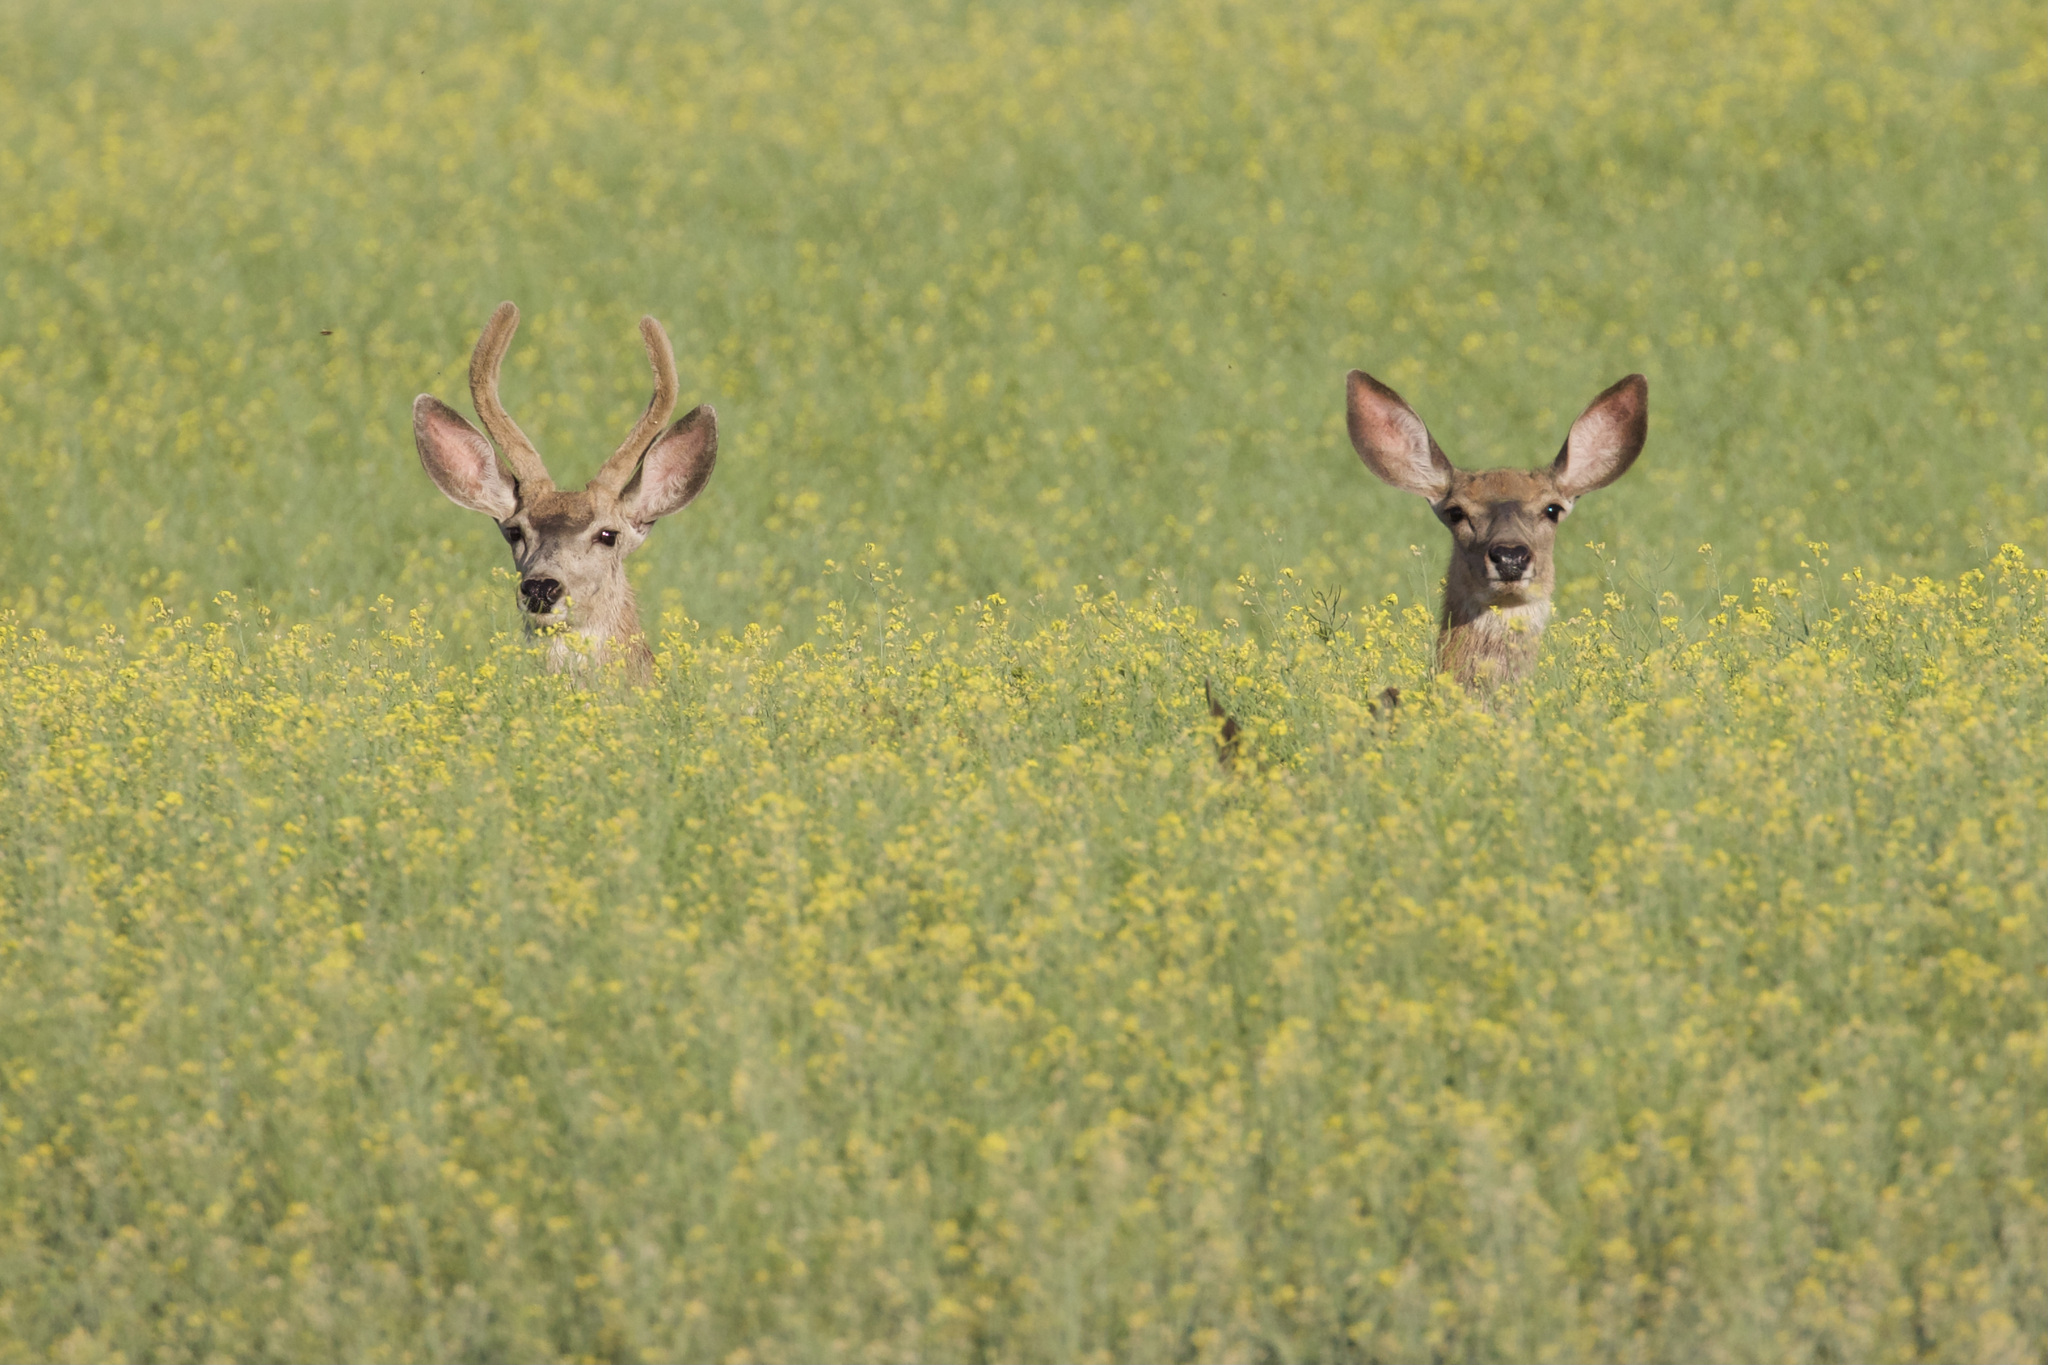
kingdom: Animalia
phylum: Chordata
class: Mammalia
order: Artiodactyla
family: Cervidae
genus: Odocoileus
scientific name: Odocoileus hemionus
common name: Mule deer
